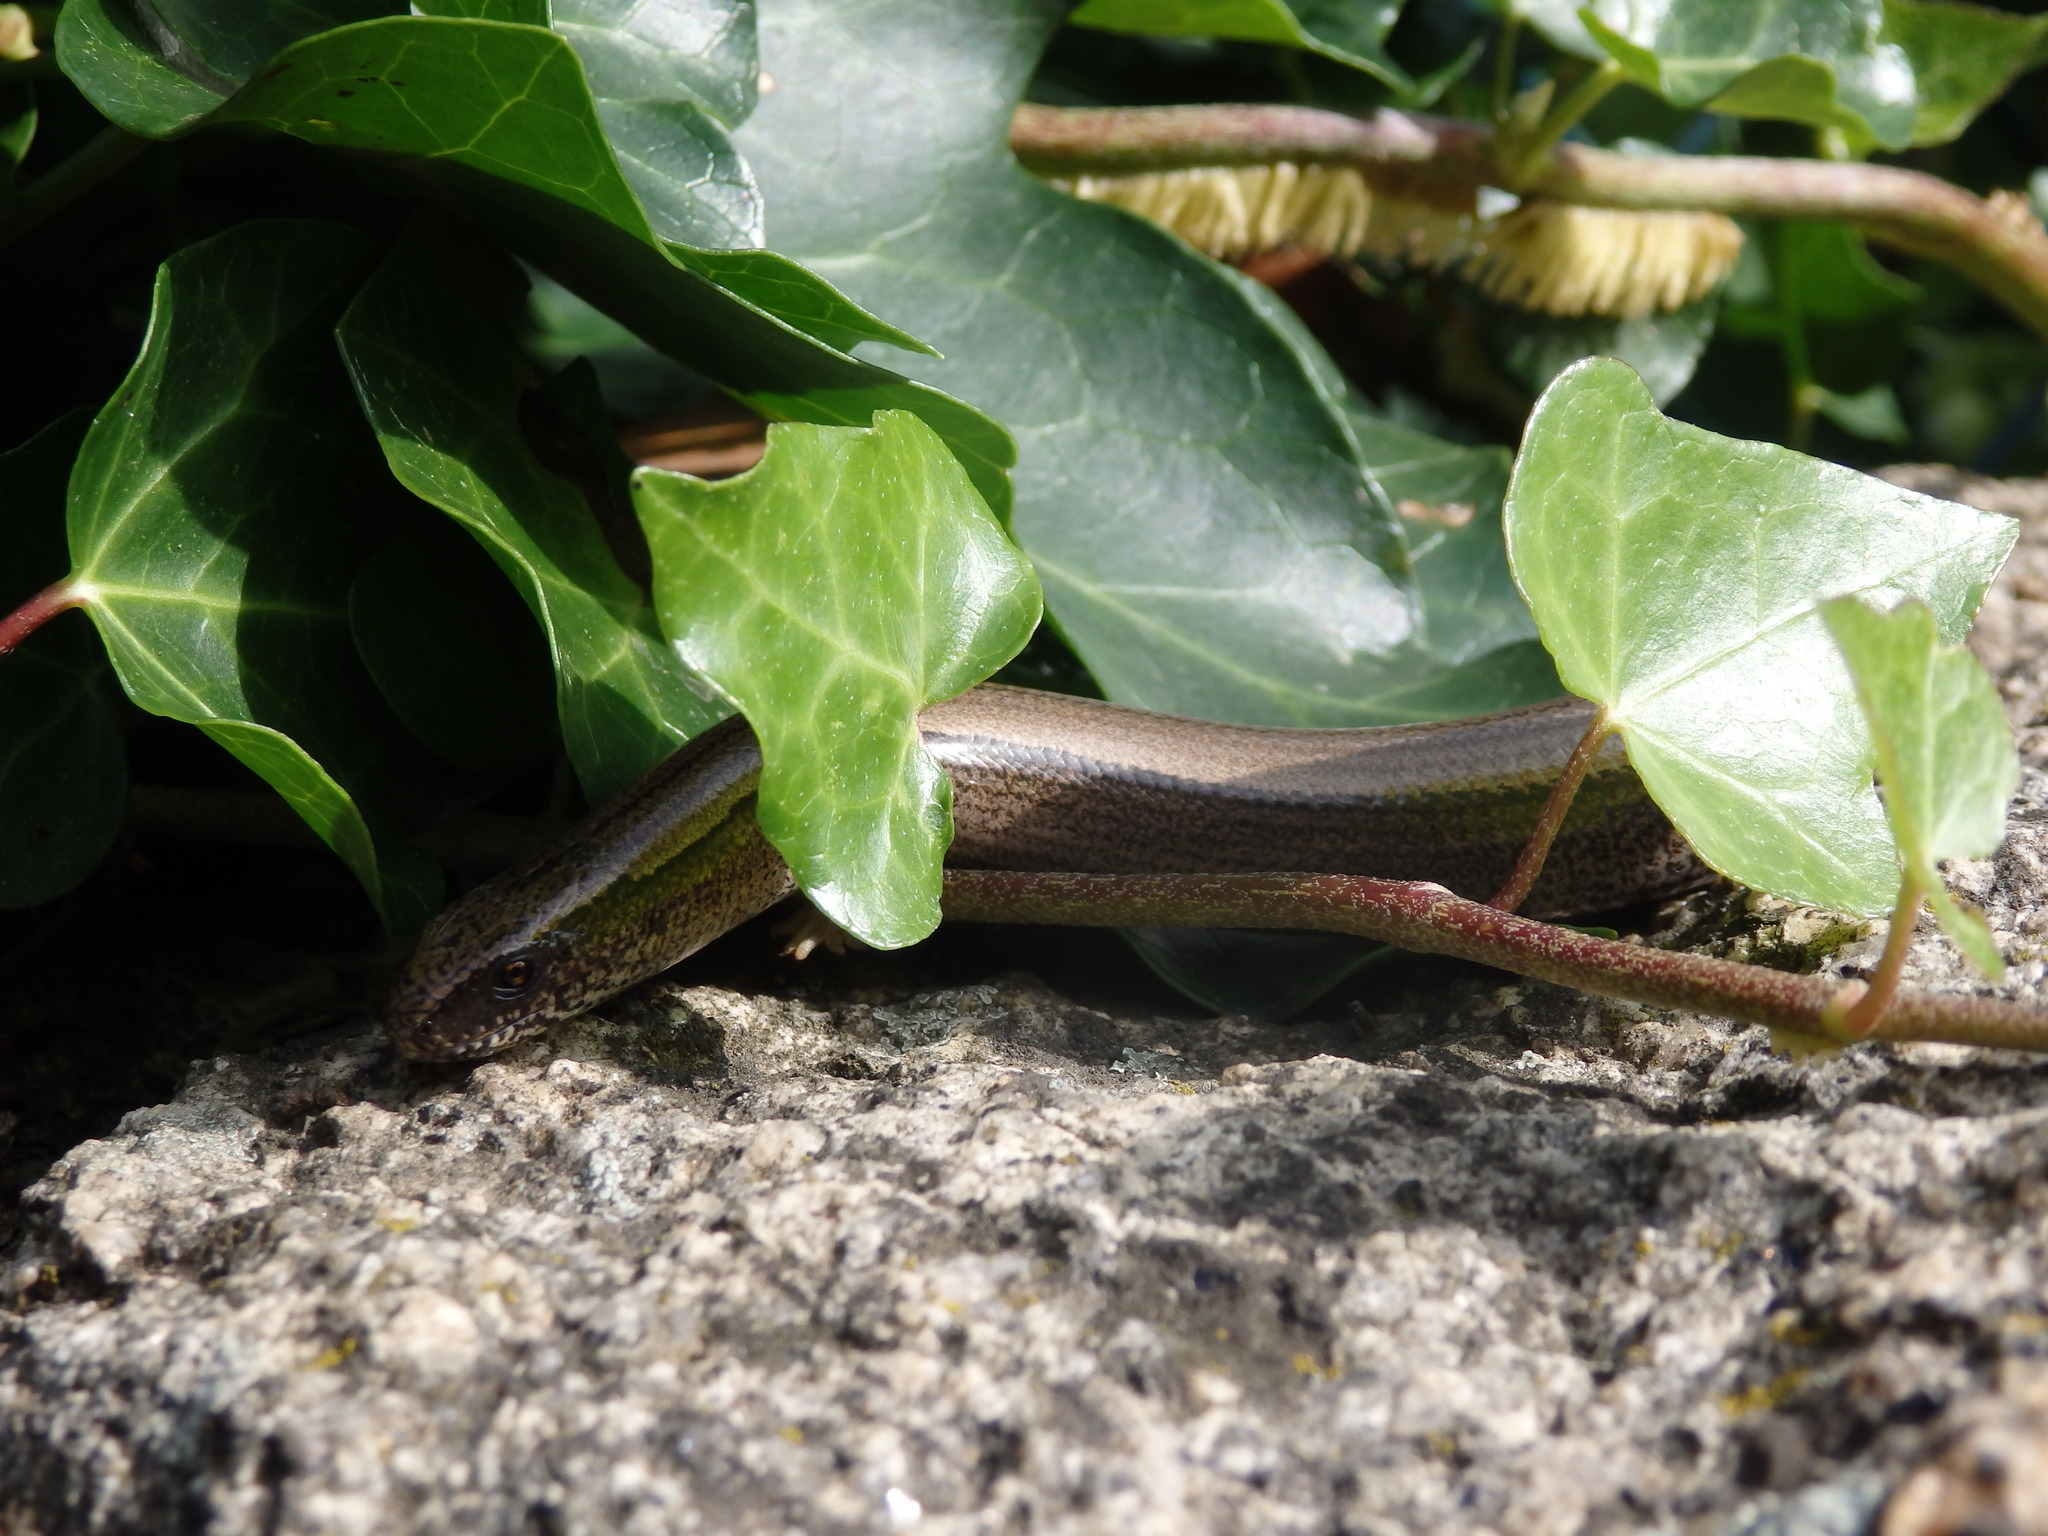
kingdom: Animalia
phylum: Chordata
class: Squamata
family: Anguidae
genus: Anguis
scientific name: Anguis fragilis
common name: Slow worm
